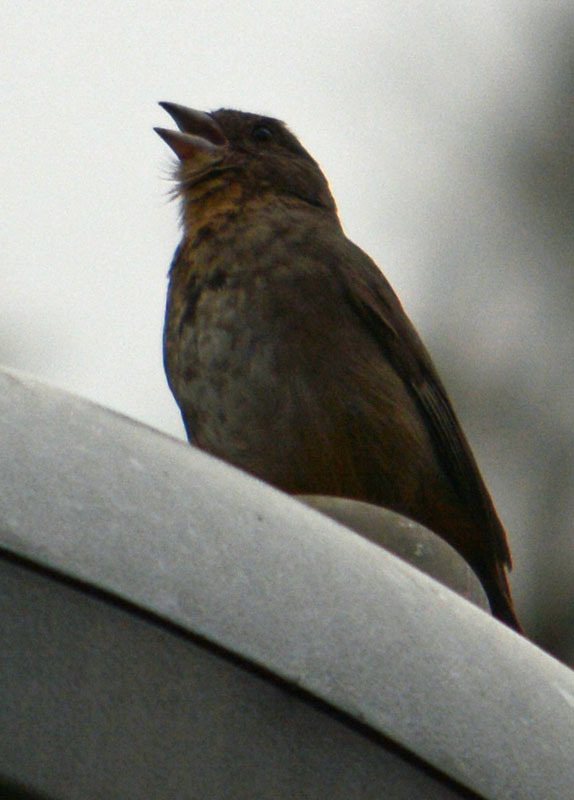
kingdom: Animalia
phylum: Chordata
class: Aves
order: Passeriformes
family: Passerellidae
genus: Melozone
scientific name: Melozone fusca
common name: Canyon towhee
